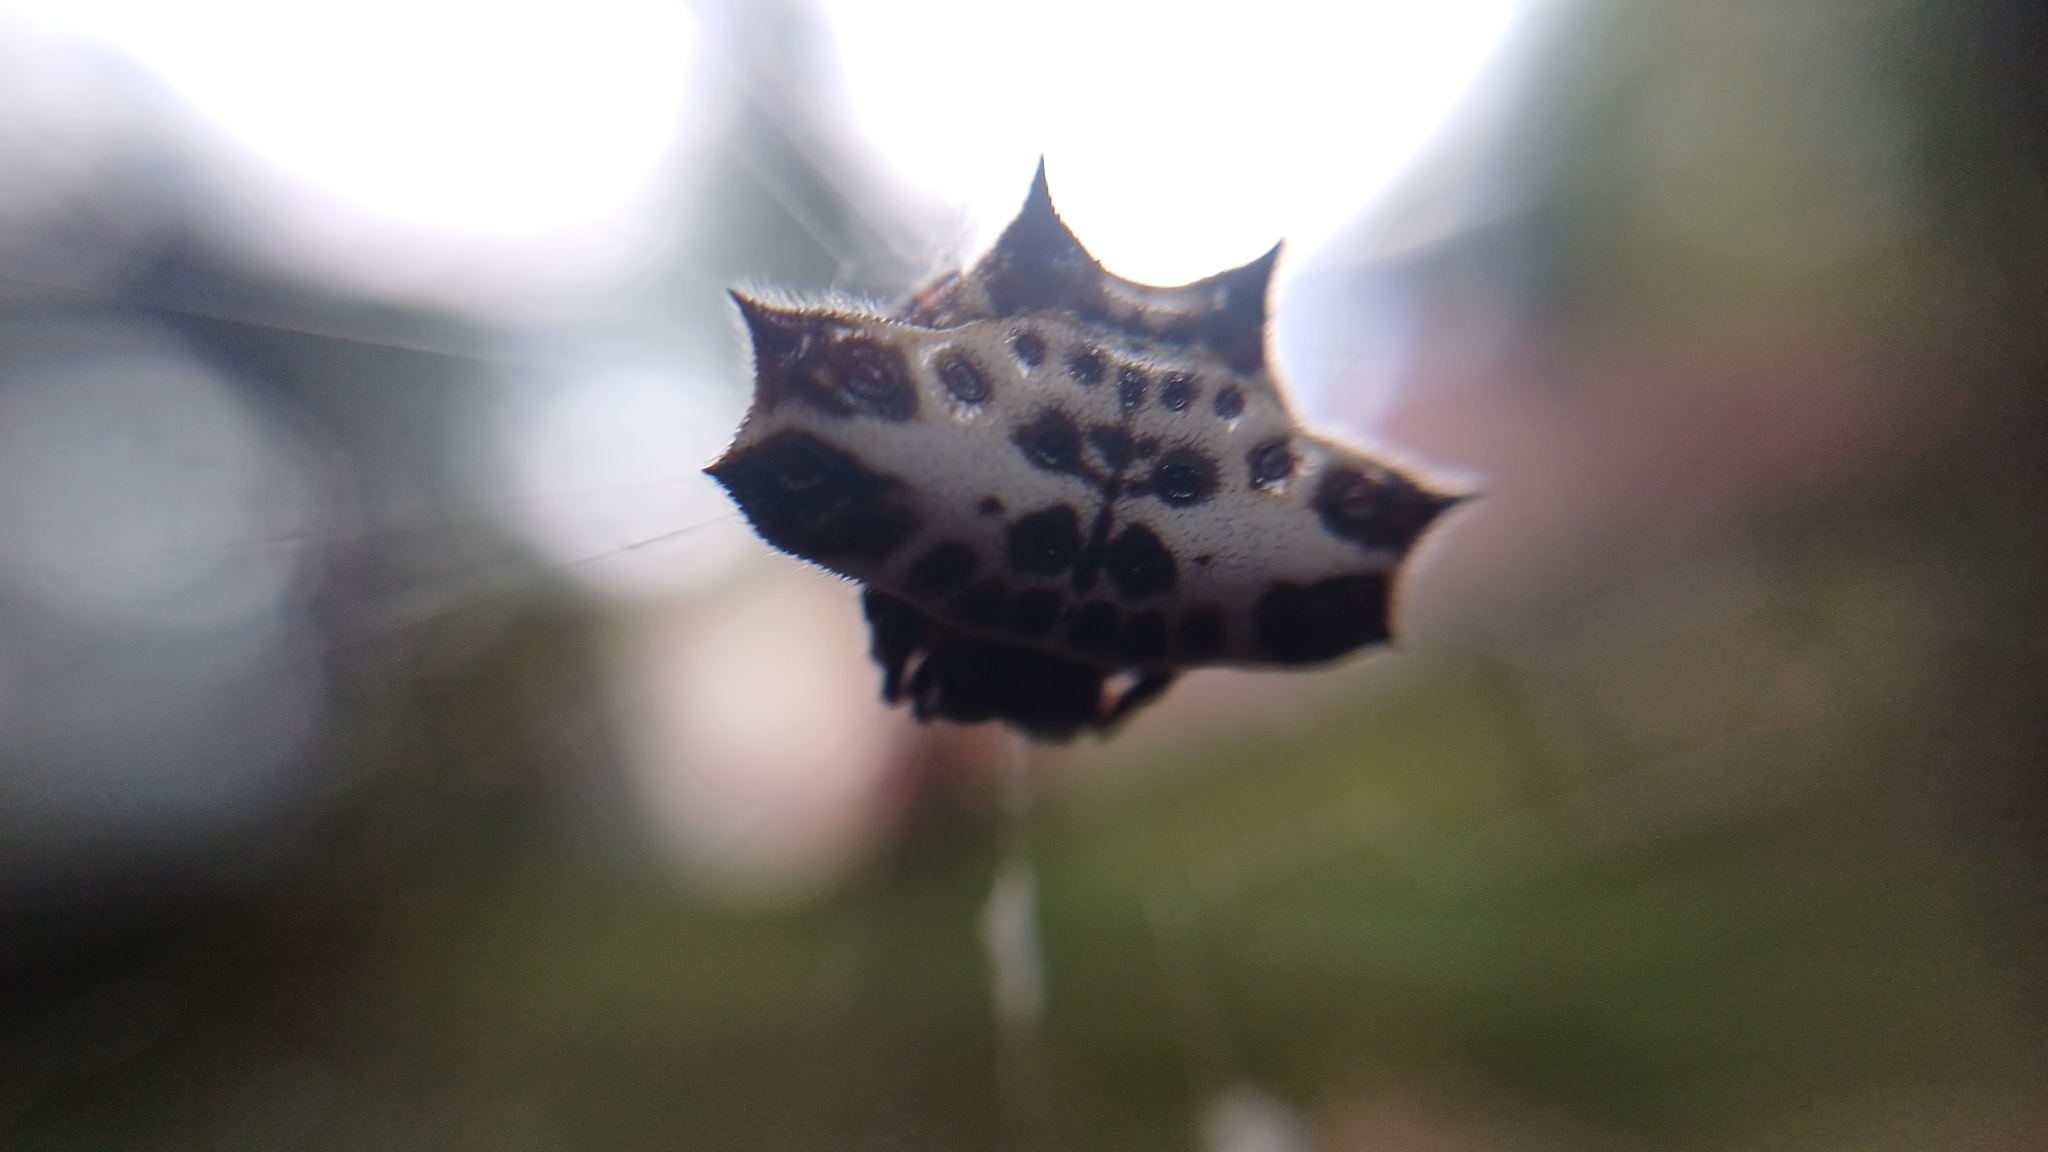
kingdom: Animalia
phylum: Arthropoda
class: Arachnida
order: Araneae
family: Araneidae
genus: Gasteracantha
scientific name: Gasteracantha cancriformis
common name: Orb weavers
